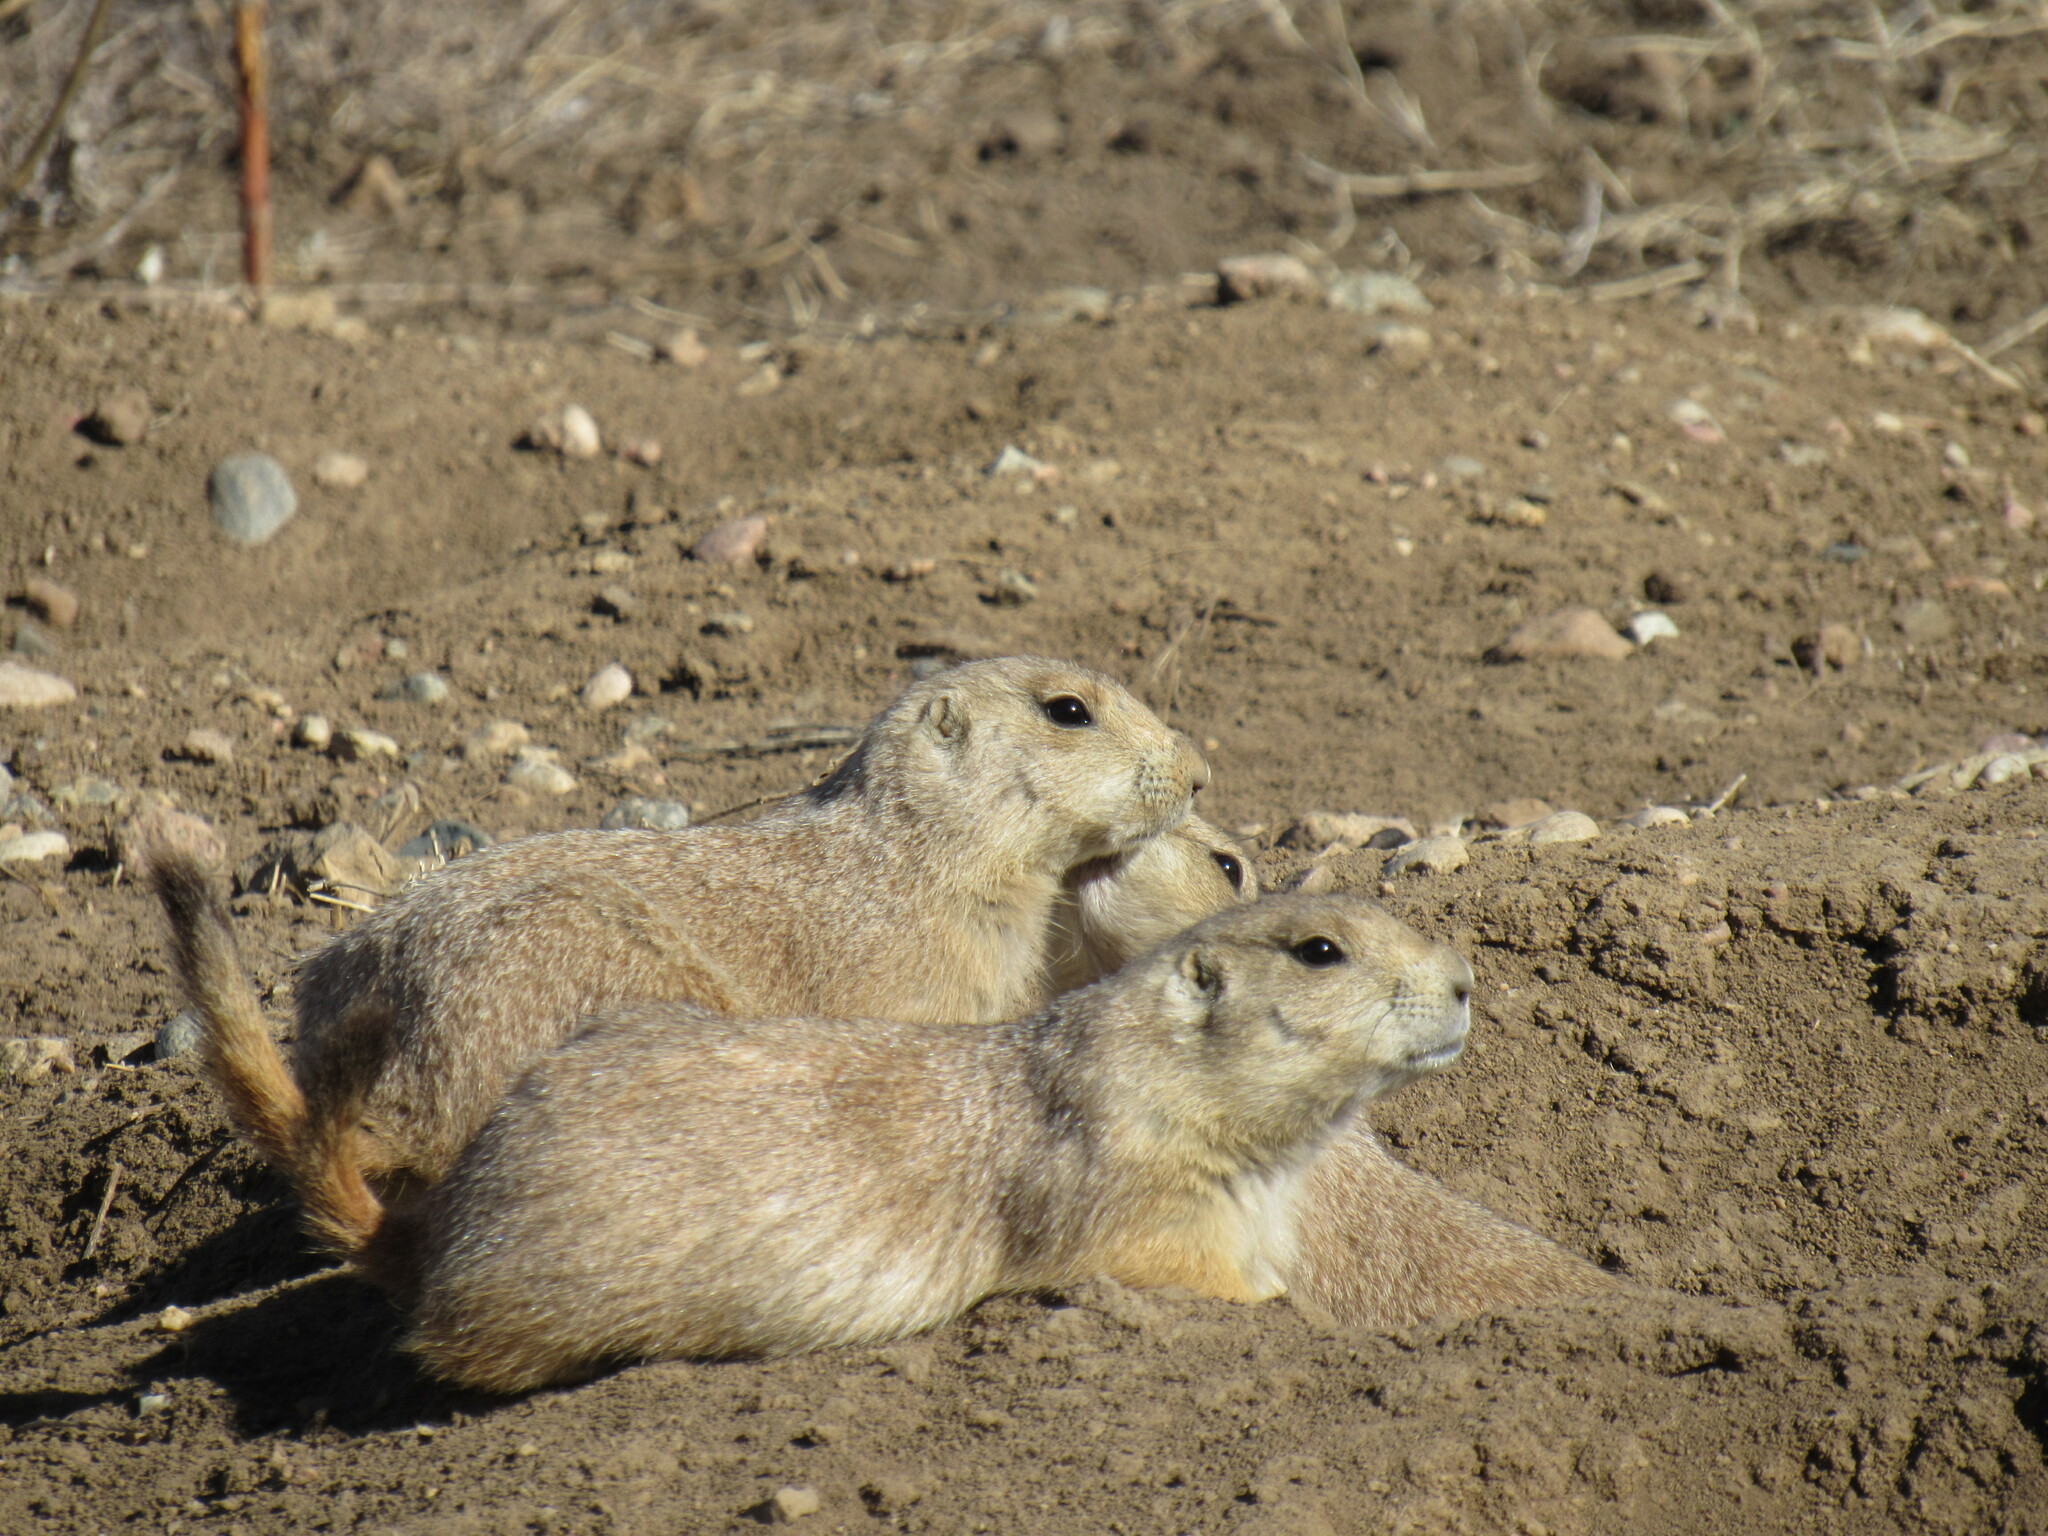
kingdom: Animalia
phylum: Chordata
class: Mammalia
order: Rodentia
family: Sciuridae
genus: Cynomys
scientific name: Cynomys ludovicianus
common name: Black-tailed prairie dog
